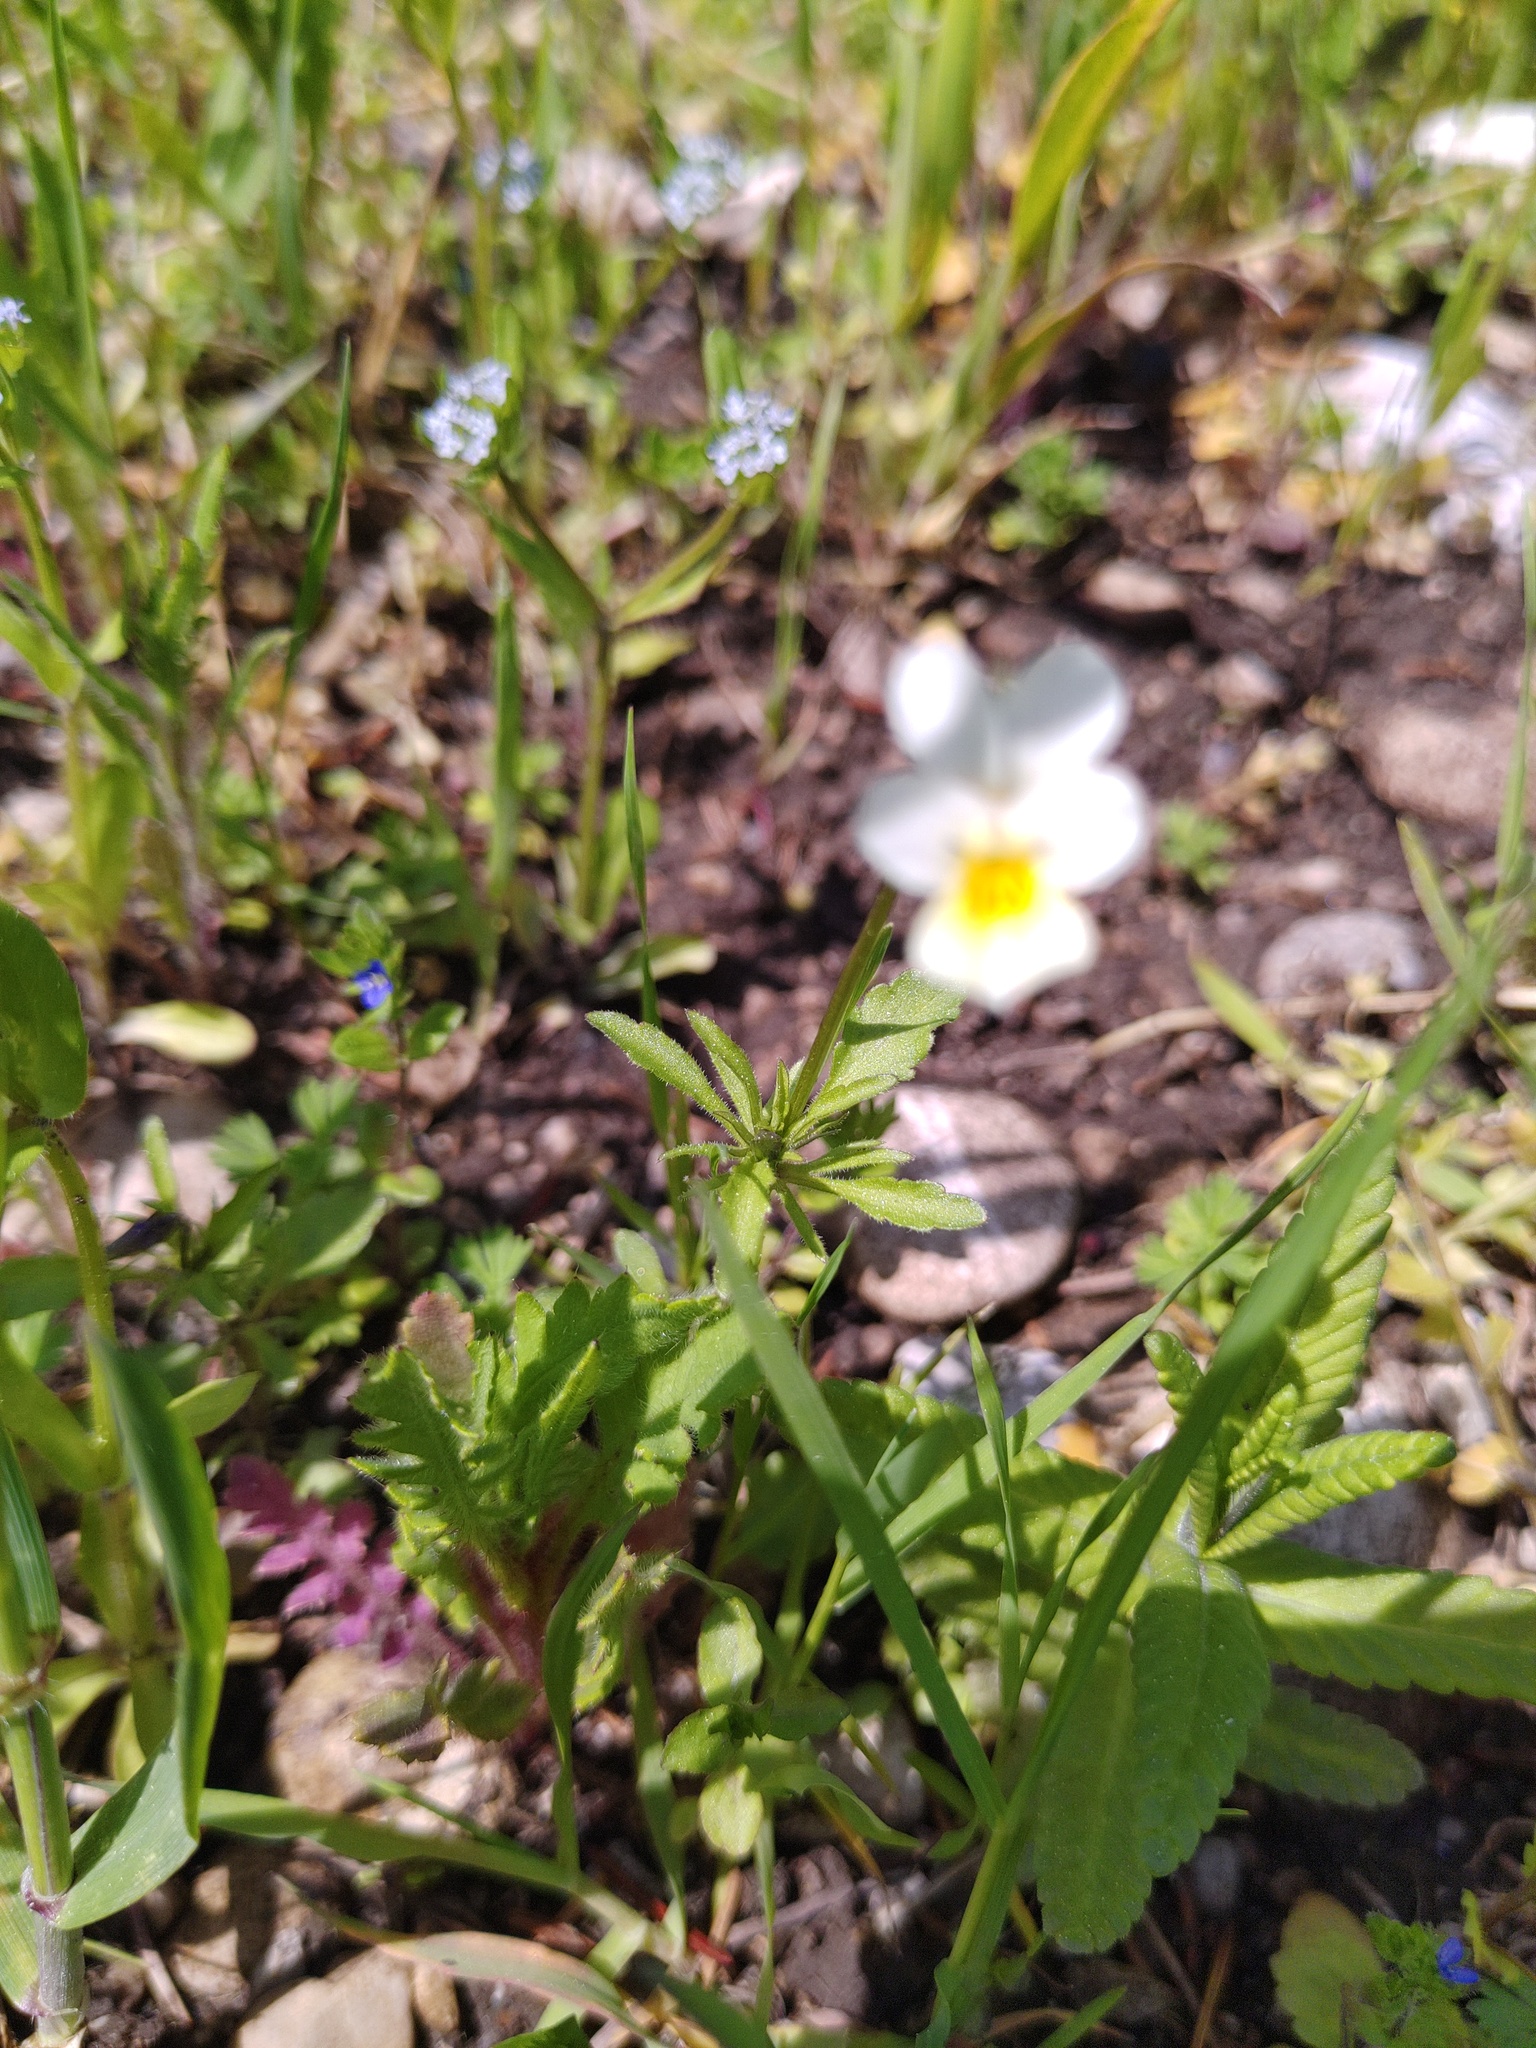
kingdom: Plantae
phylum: Tracheophyta
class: Magnoliopsida
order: Malpighiales
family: Violaceae
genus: Viola
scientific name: Viola arvensis
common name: Field pansy
